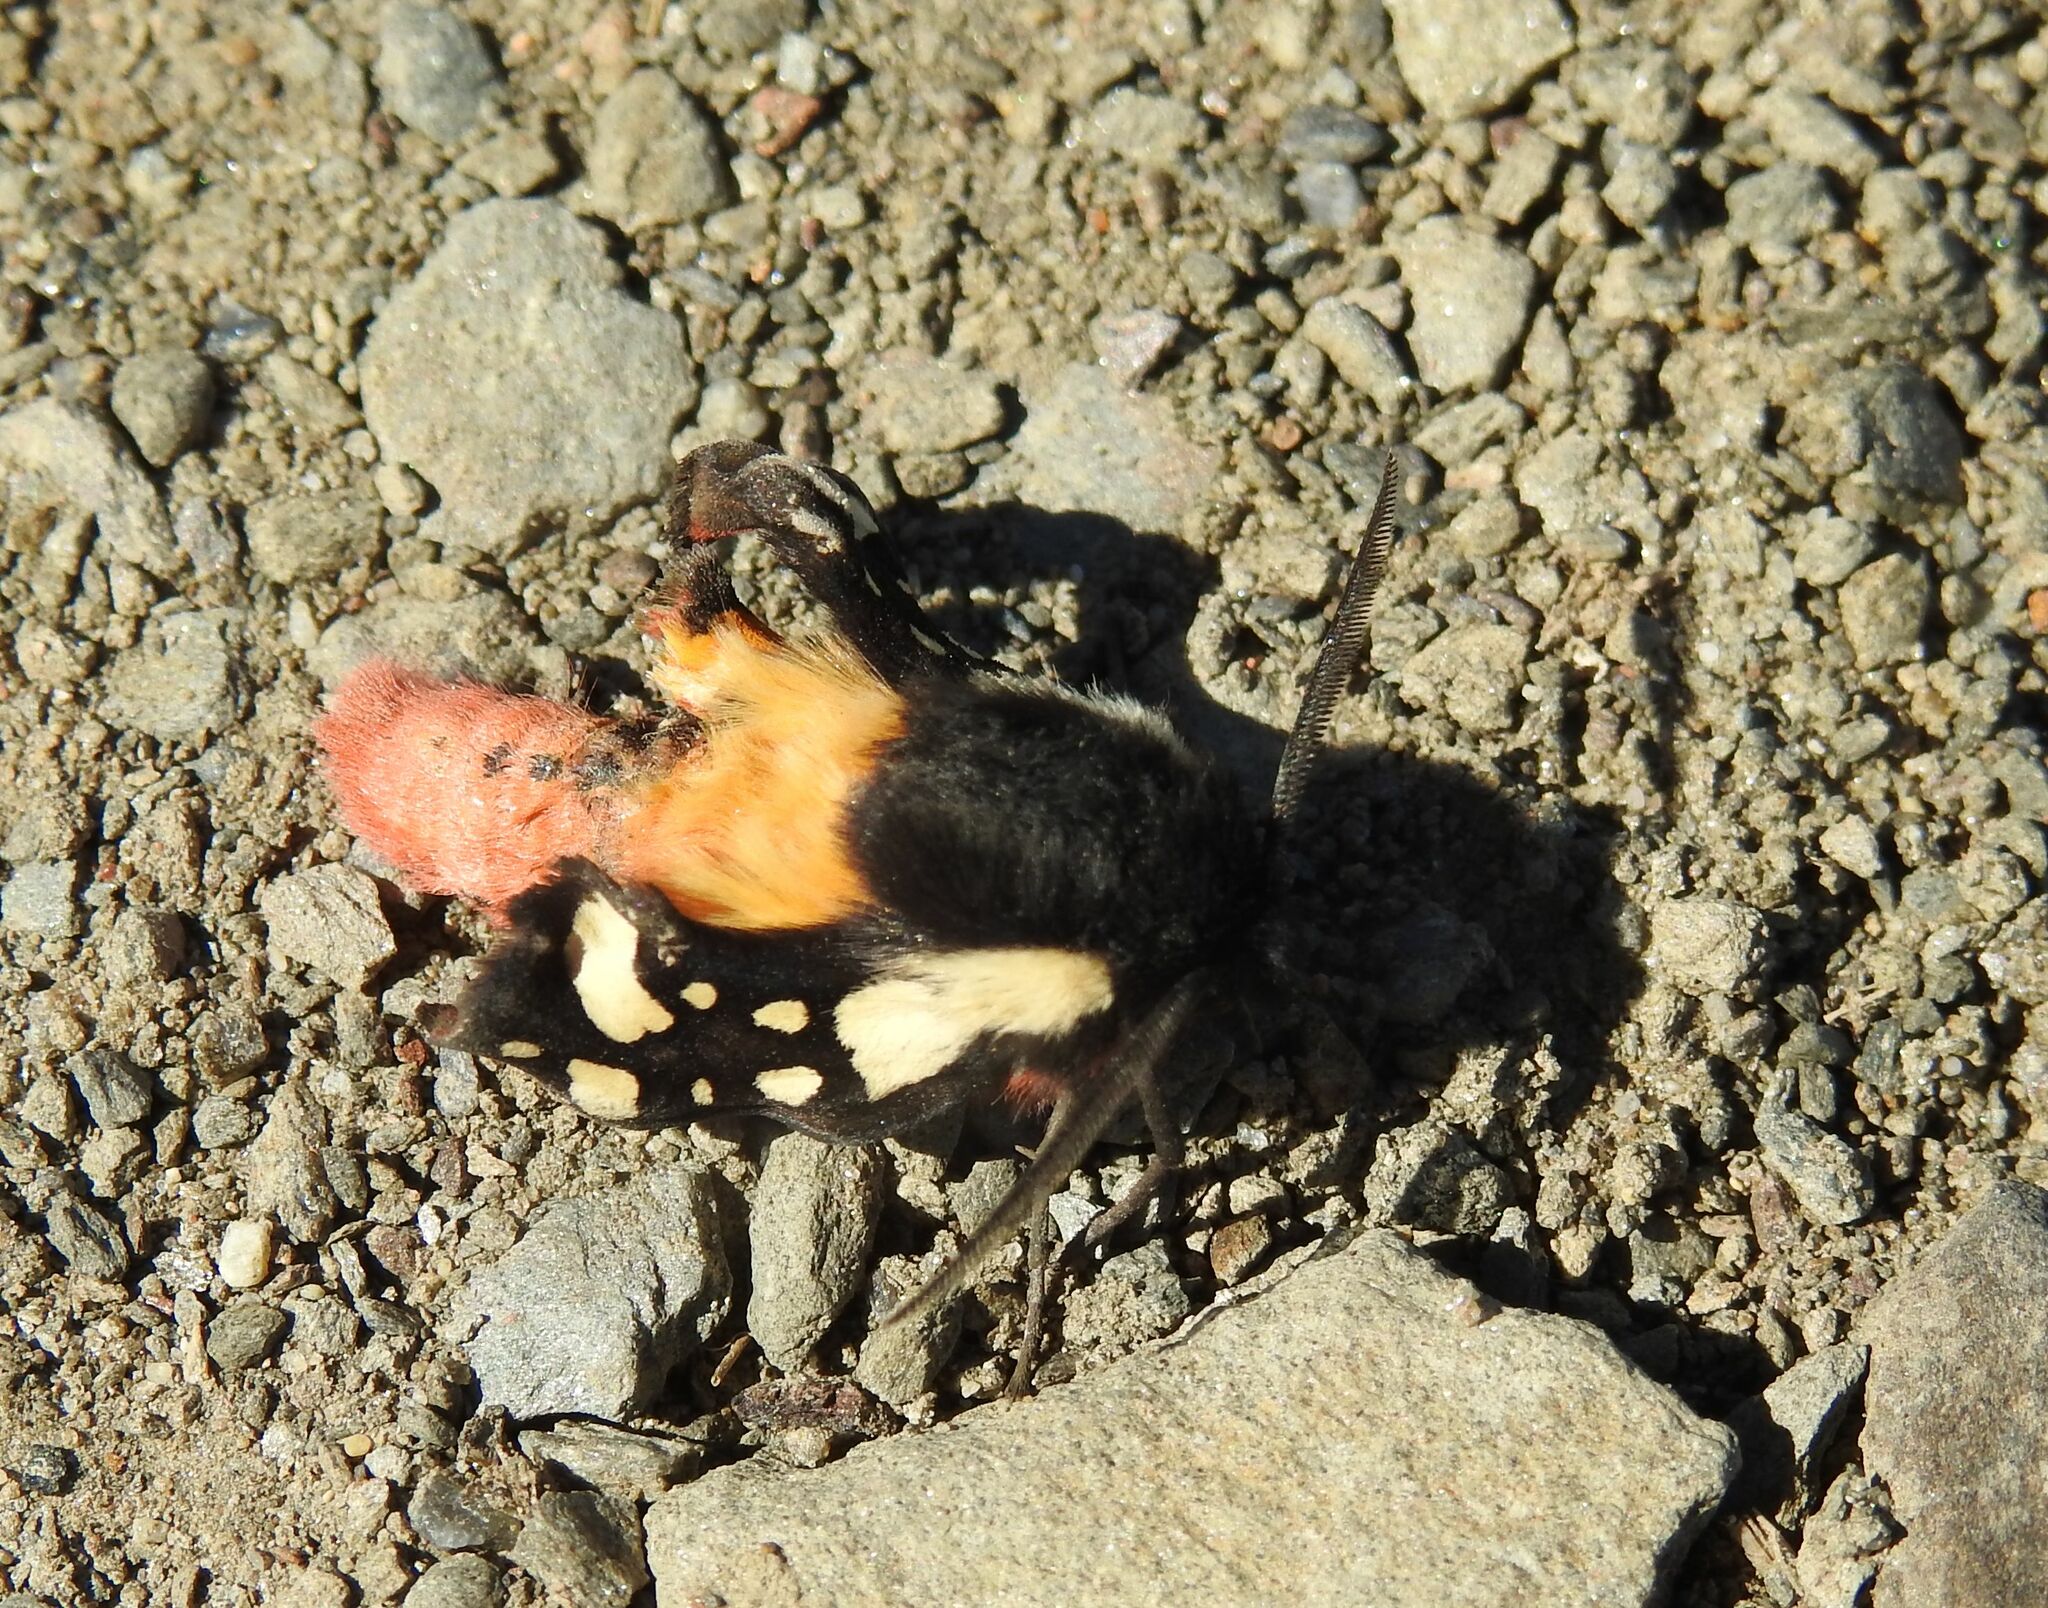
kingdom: Animalia
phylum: Arthropoda
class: Insecta
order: Lepidoptera
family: Erebidae
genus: Epicallia
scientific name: Epicallia villica
